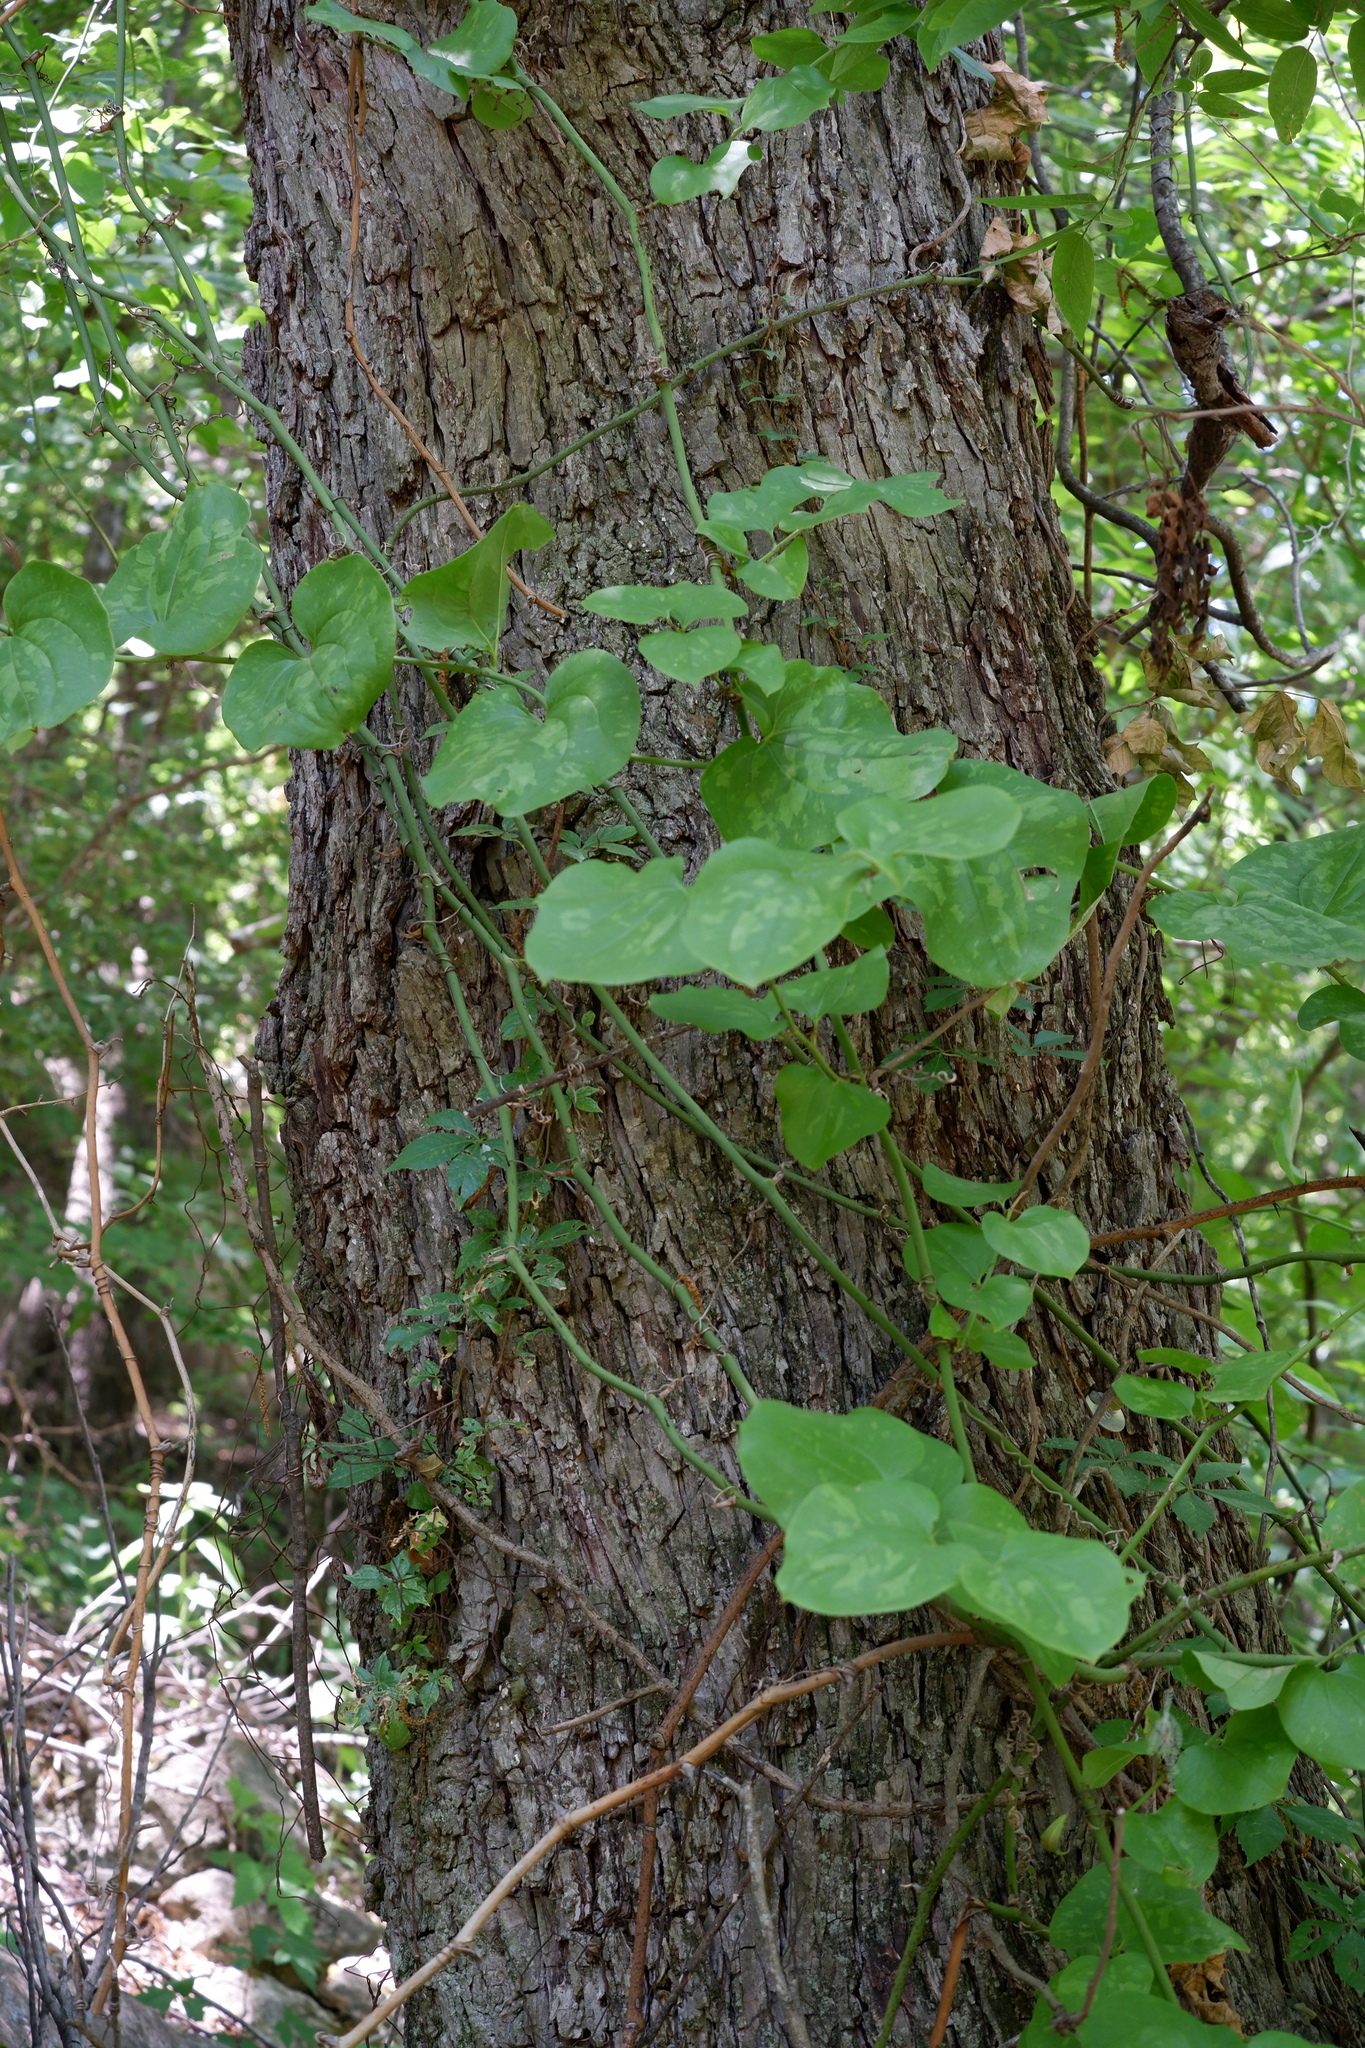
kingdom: Plantae
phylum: Tracheophyta
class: Liliopsida
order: Liliales
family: Smilacaceae
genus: Smilax
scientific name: Smilax tamnoides
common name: Hellfetter
